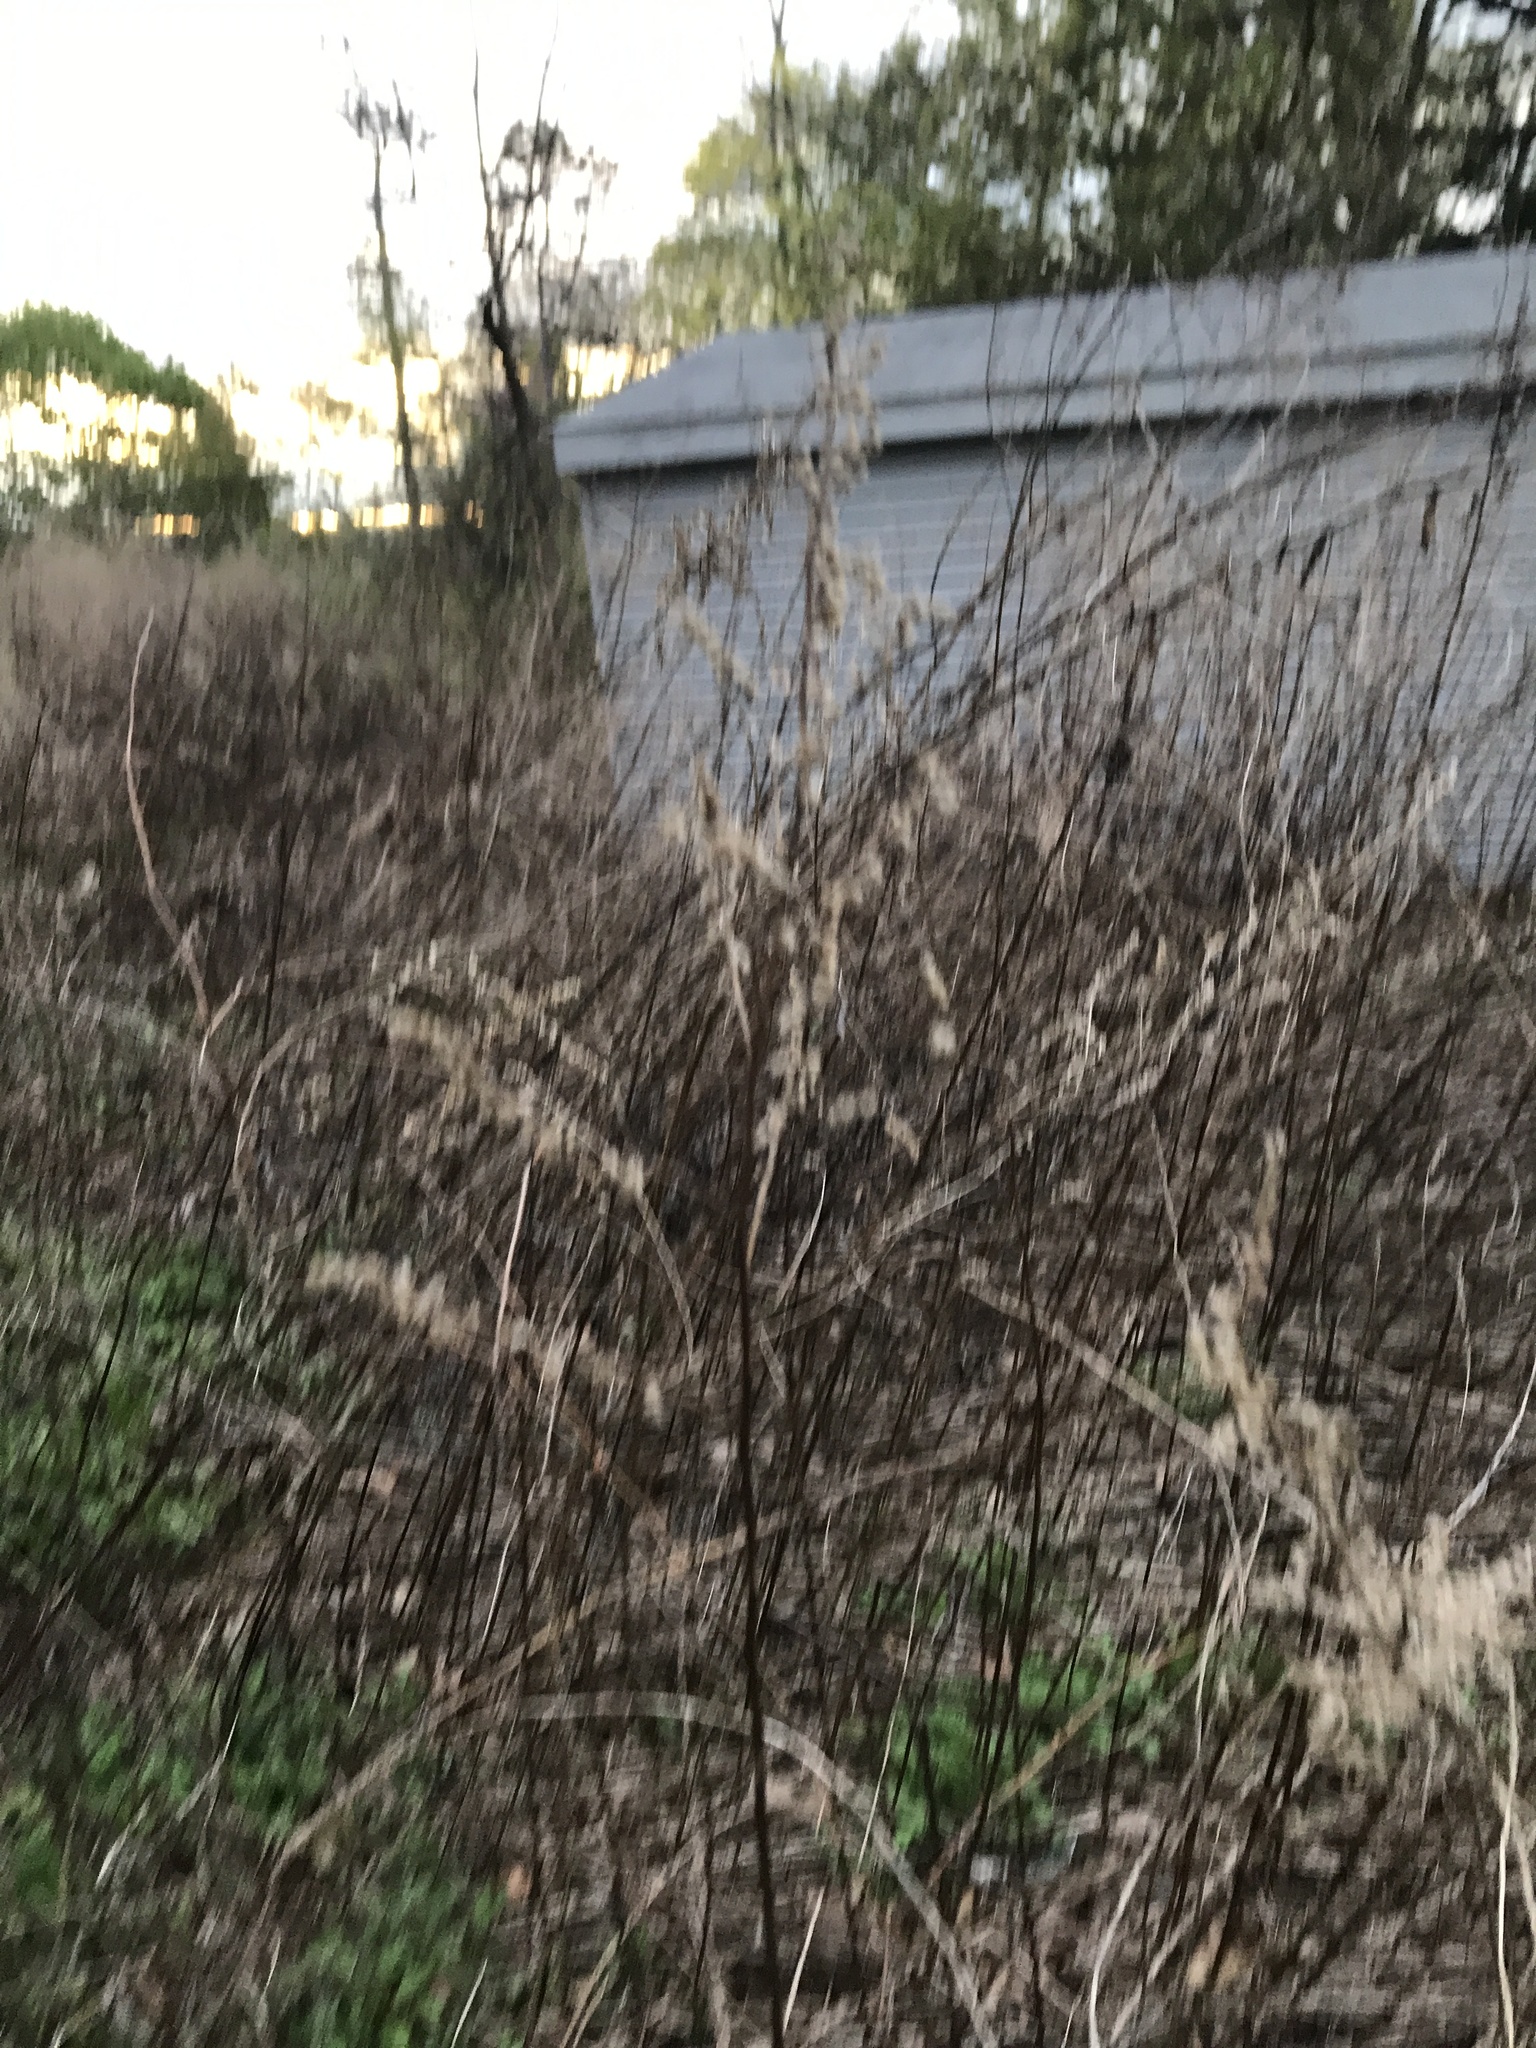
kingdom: Plantae
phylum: Tracheophyta
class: Magnoliopsida
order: Asterales
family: Asteraceae
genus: Artemisia
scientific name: Artemisia vulgaris
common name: Mugwort
